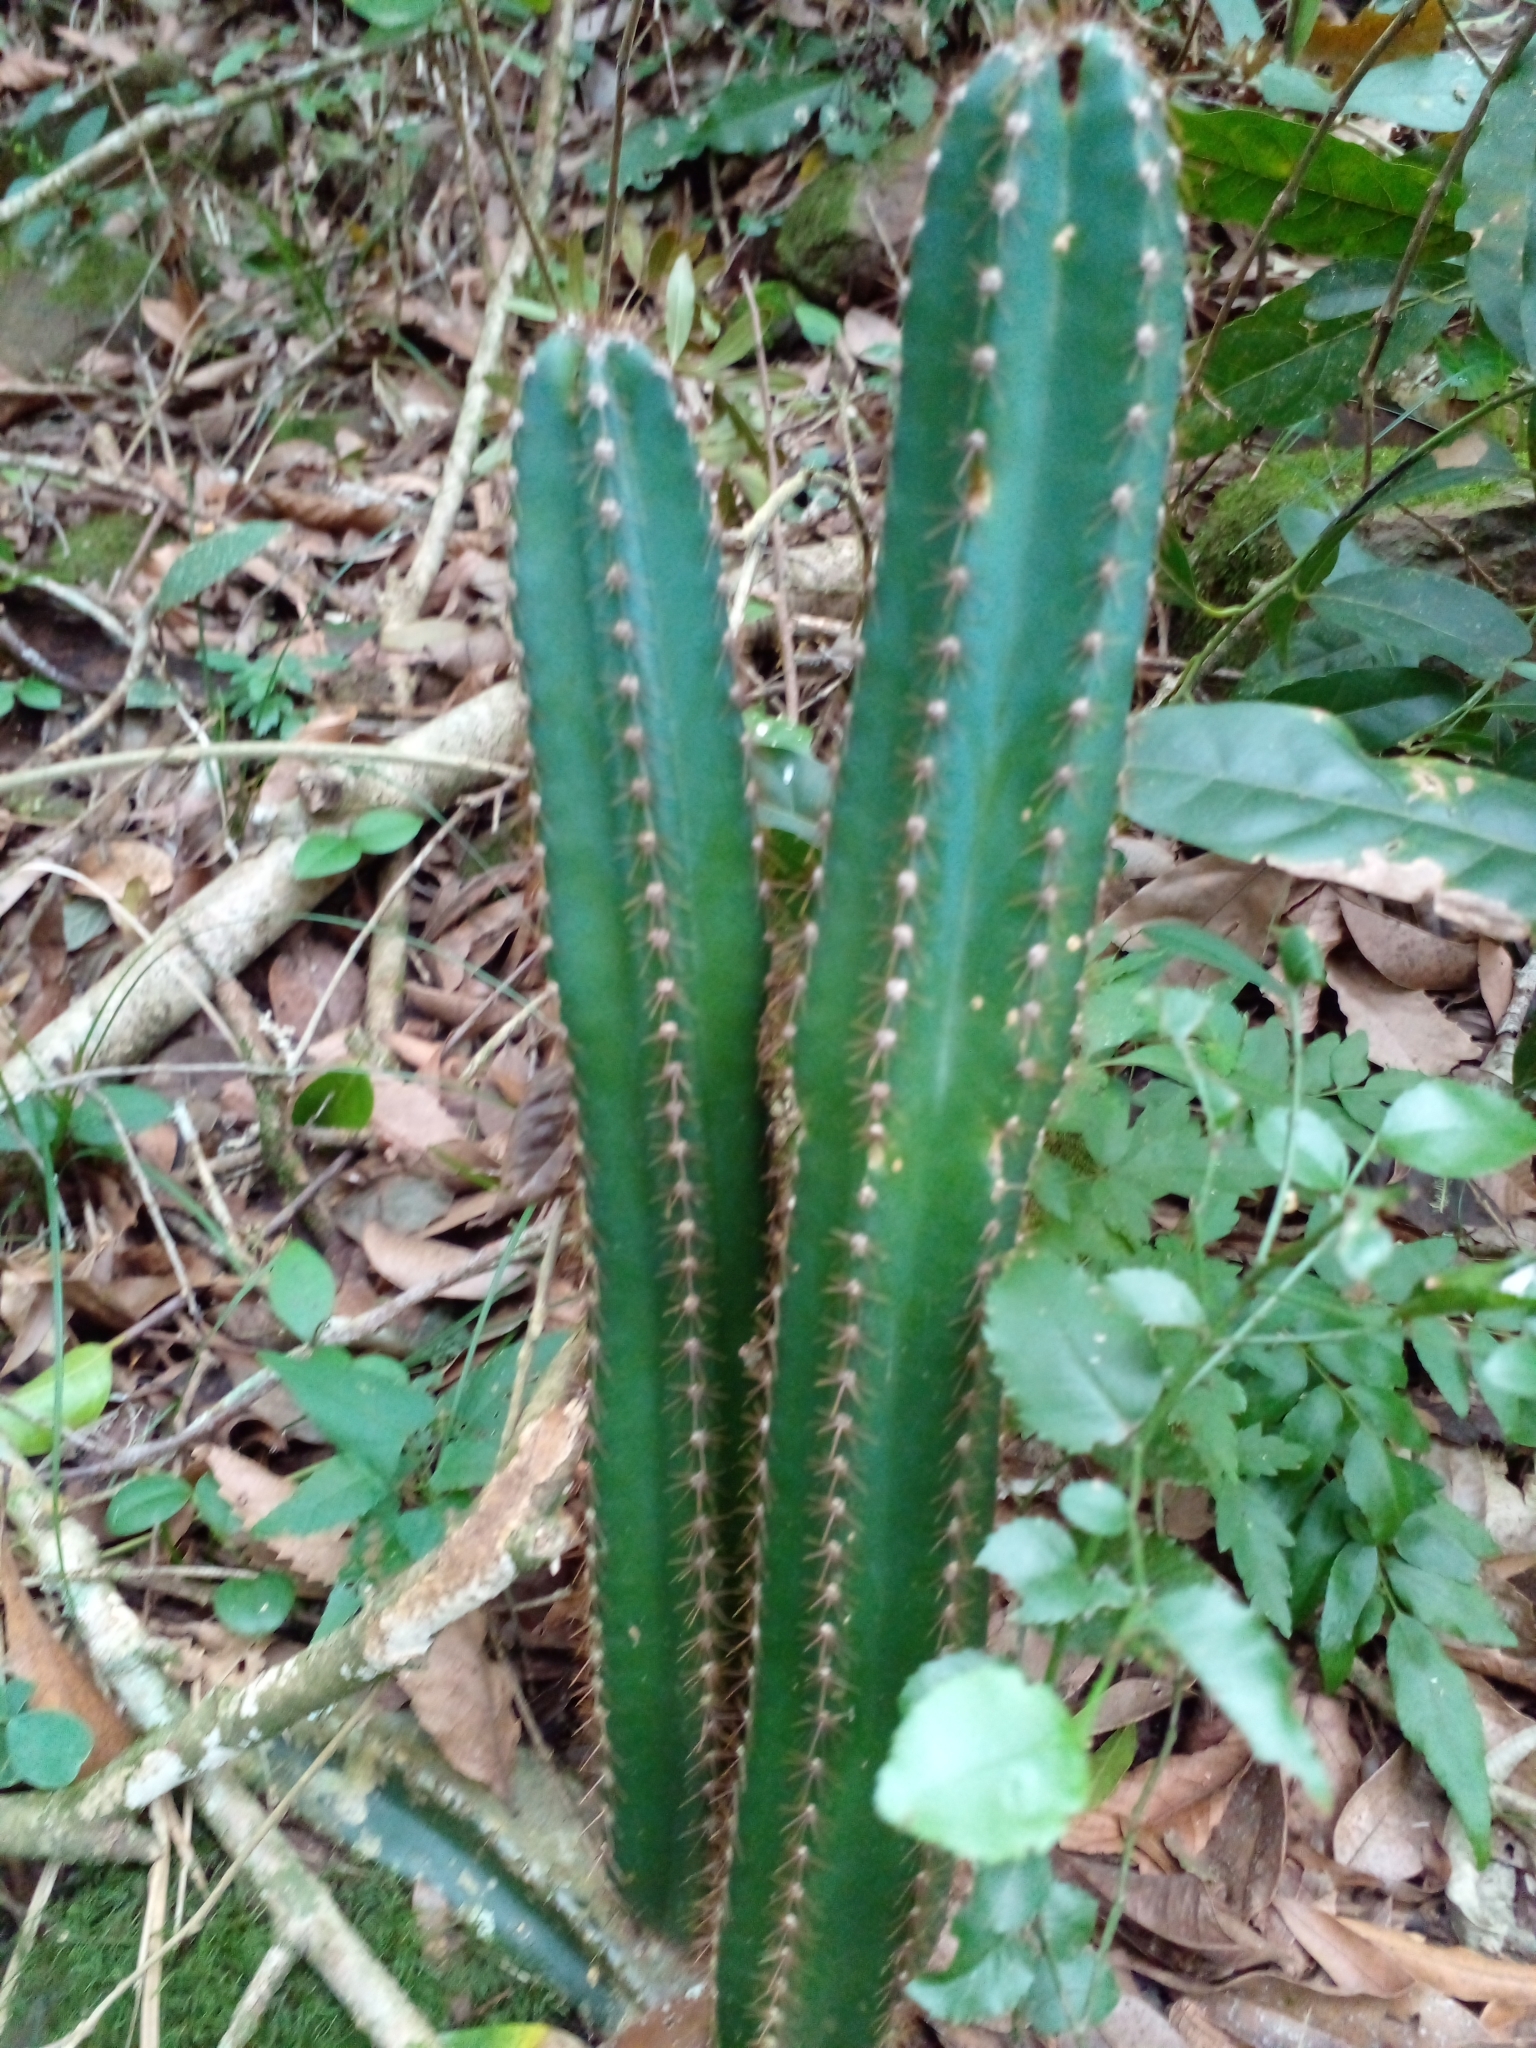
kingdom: Plantae
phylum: Tracheophyta
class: Magnoliopsida
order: Caryophyllales
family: Cactaceae
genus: Cereus
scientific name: Cereus hildmannianus
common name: Hedge cactus
